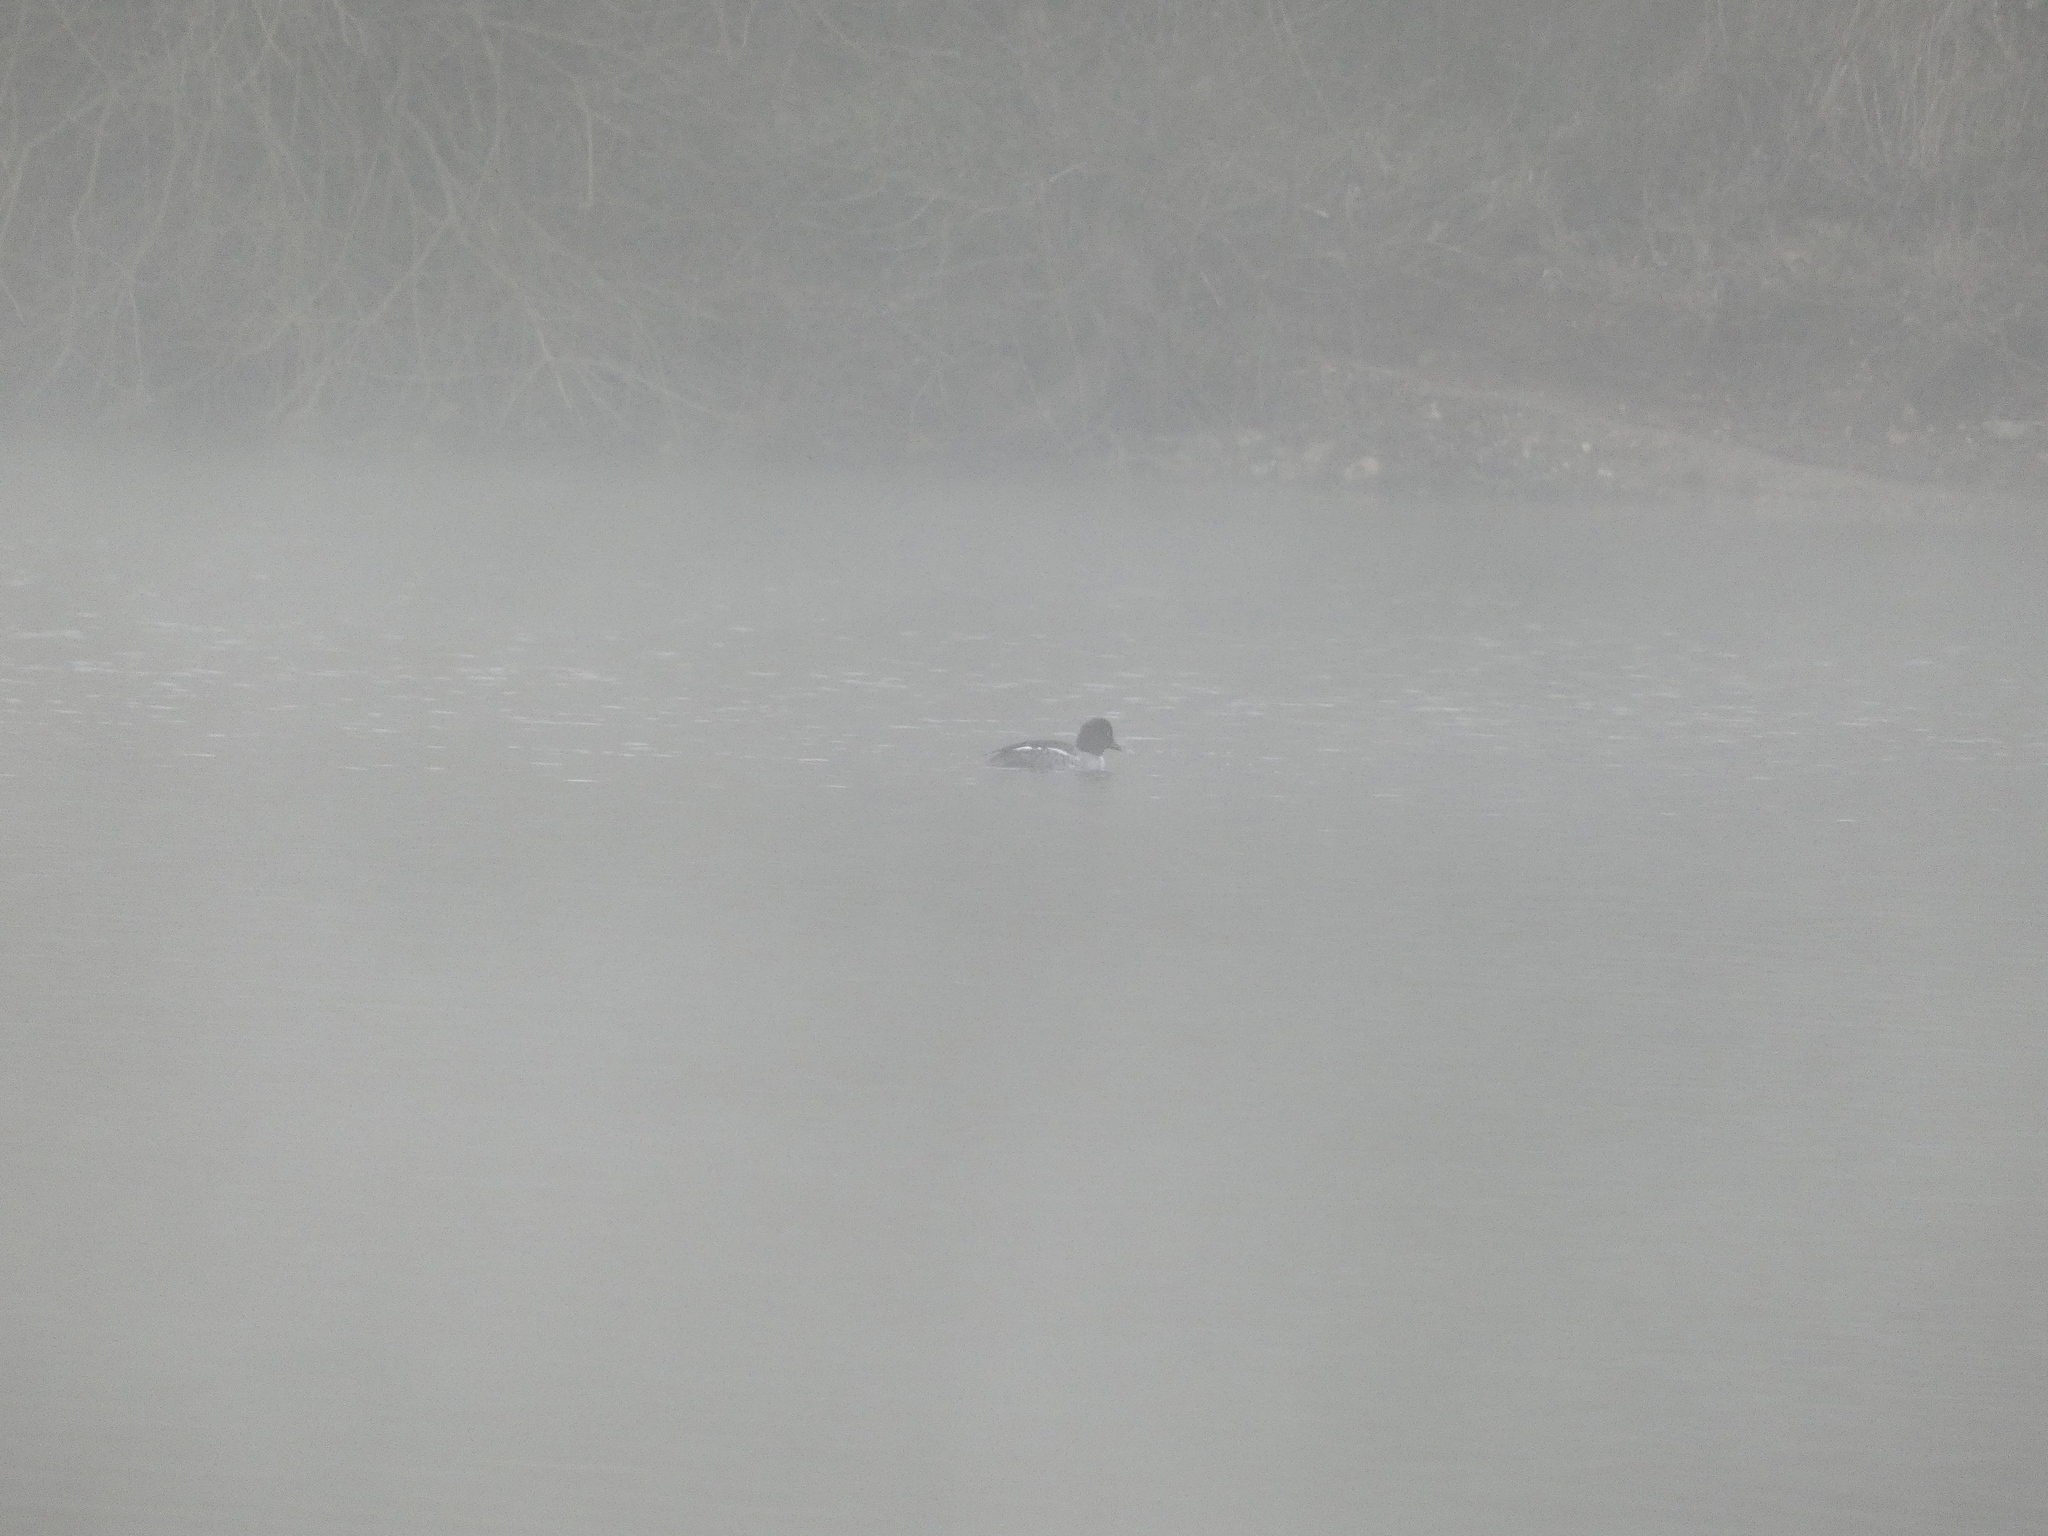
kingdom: Animalia
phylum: Chordata
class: Aves
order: Anseriformes
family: Anatidae
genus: Bucephala
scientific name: Bucephala clangula
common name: Common goldeneye
